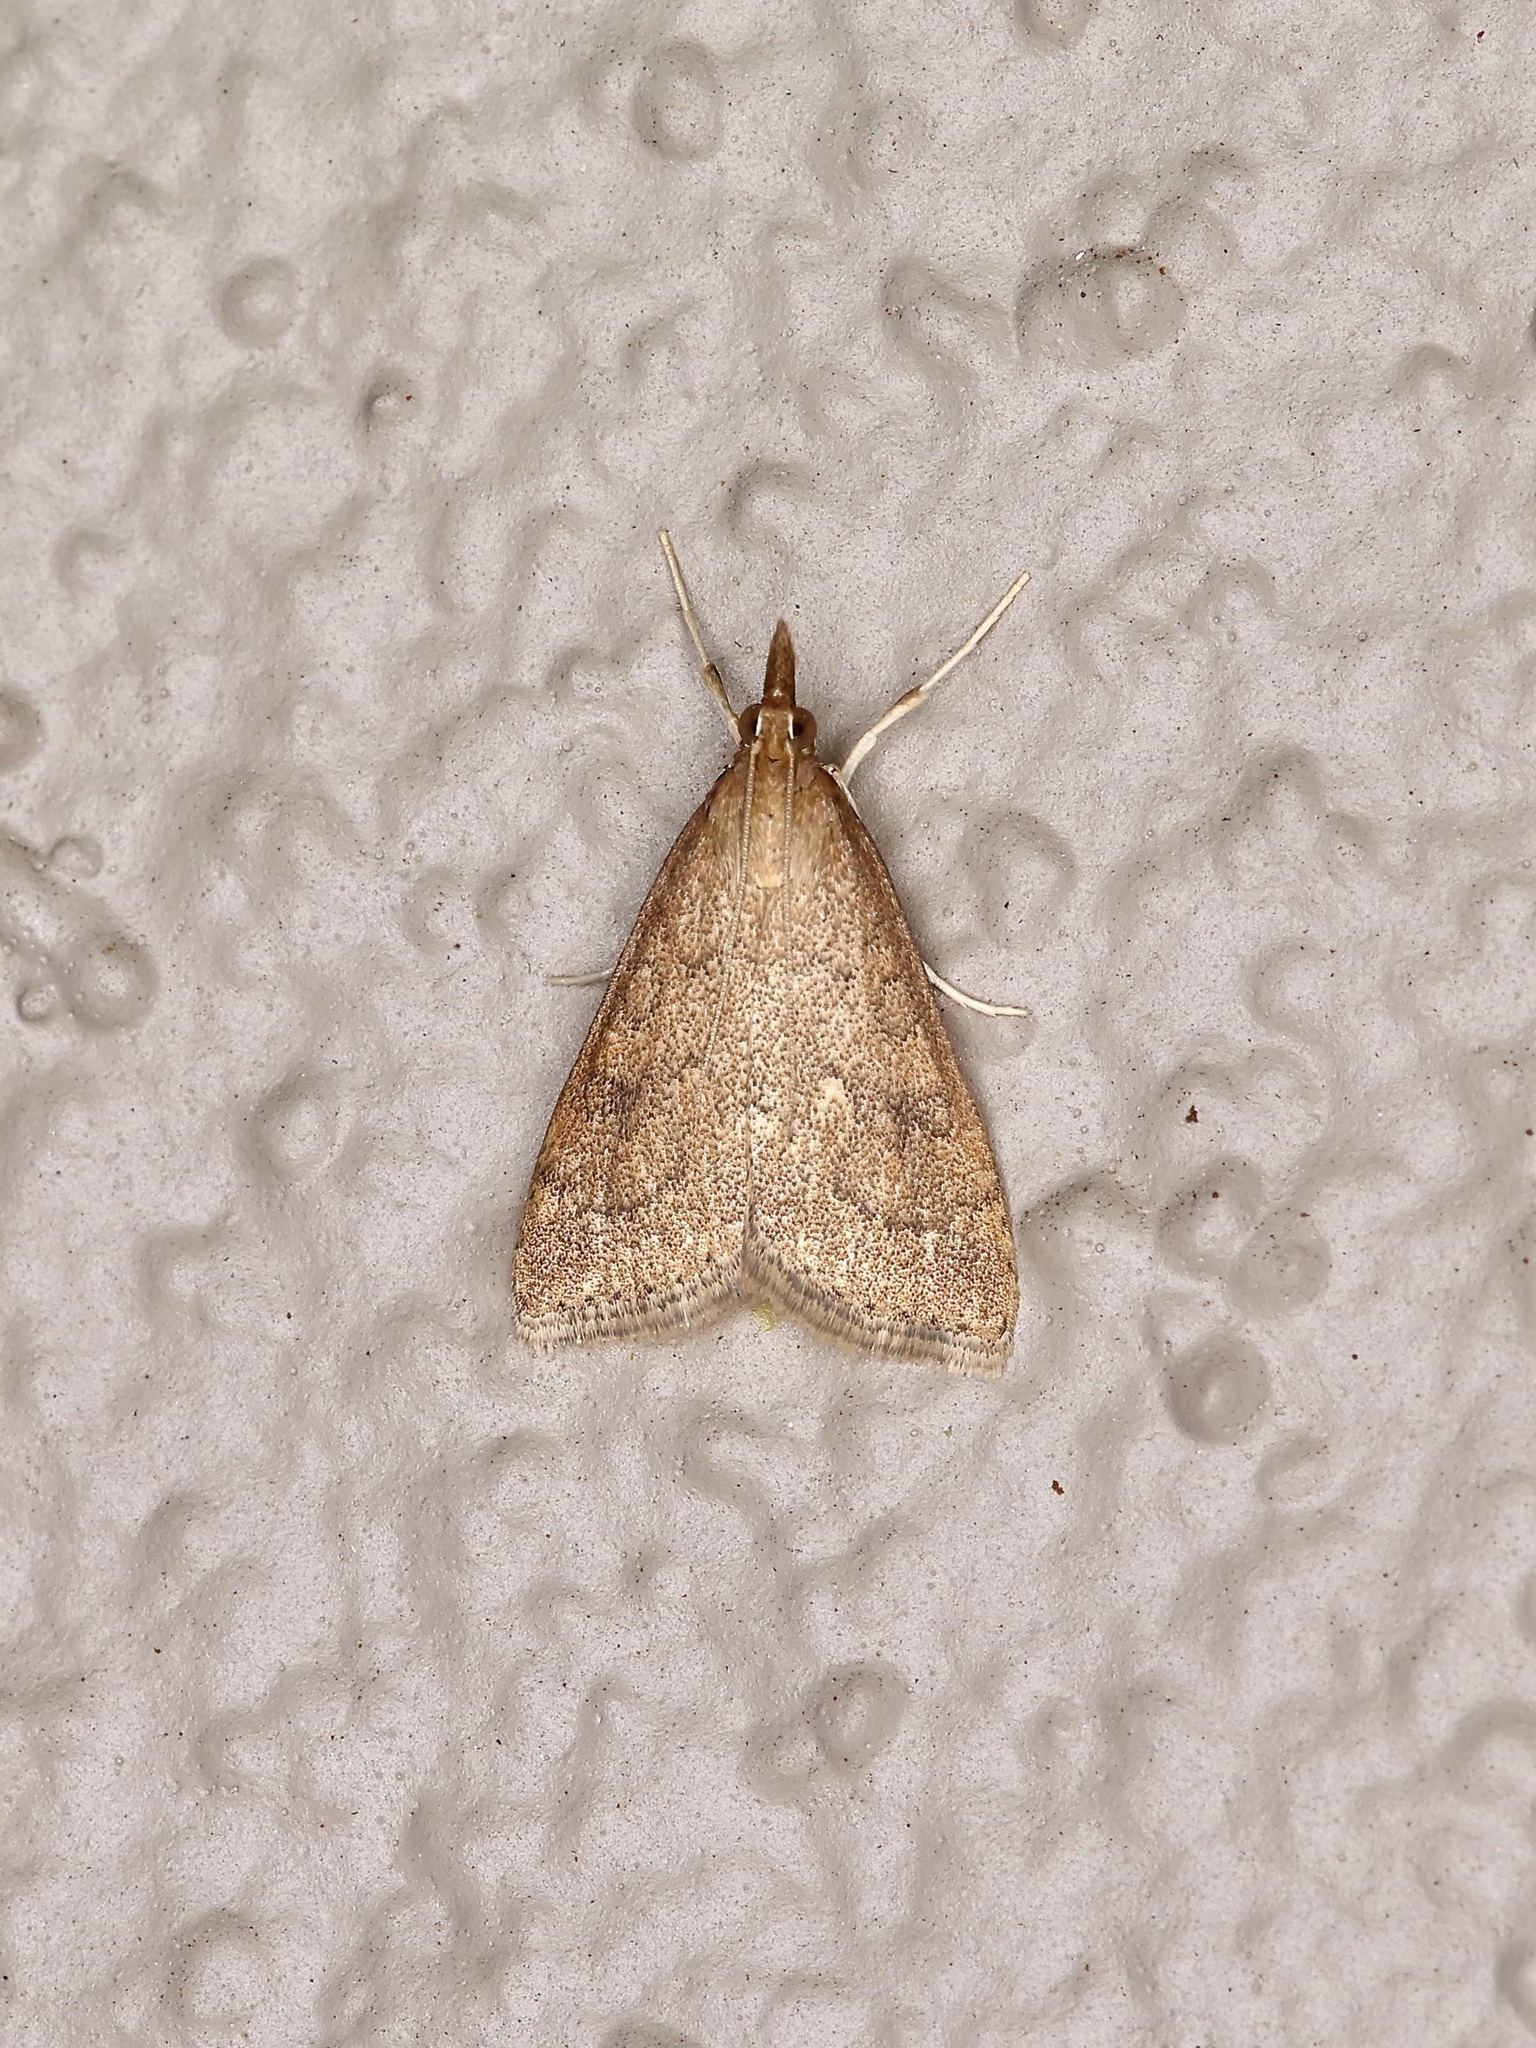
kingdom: Animalia
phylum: Arthropoda
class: Insecta
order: Lepidoptera
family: Crambidae
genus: Udea
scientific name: Udea rubigalis
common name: Celery leaftier moth
